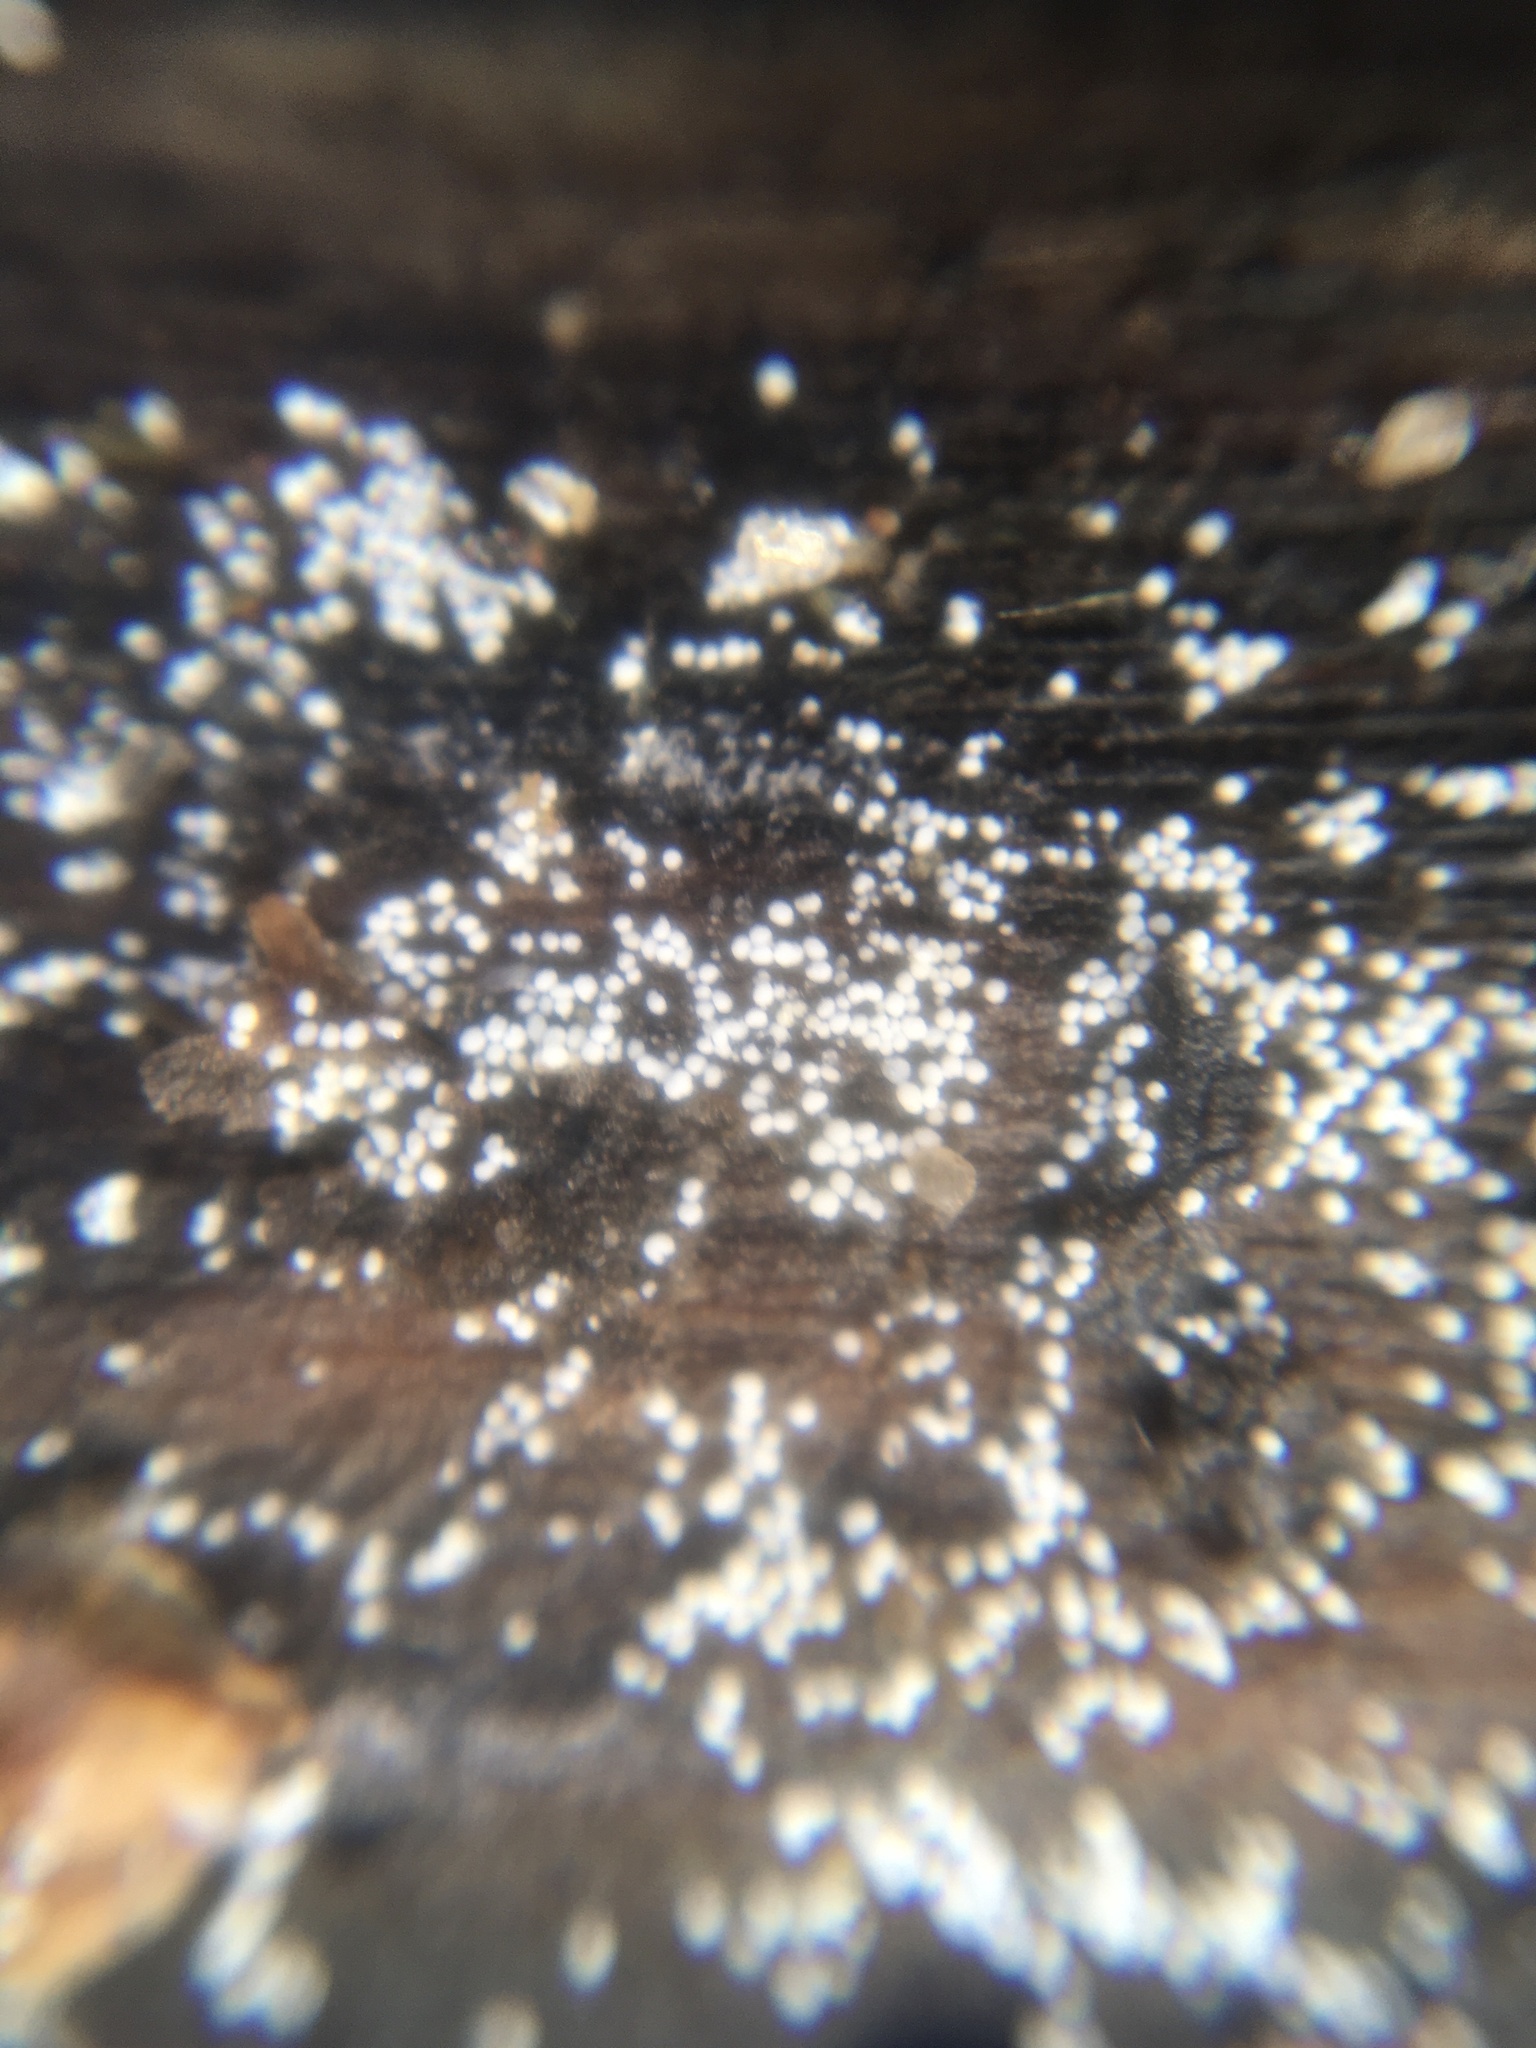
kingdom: Fungi
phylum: Basidiomycota
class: Agaricomycetes
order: Polyporales
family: Meruliaceae
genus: Bulbillomyces
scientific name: Bulbillomyces farinosus
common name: Couscous crust
